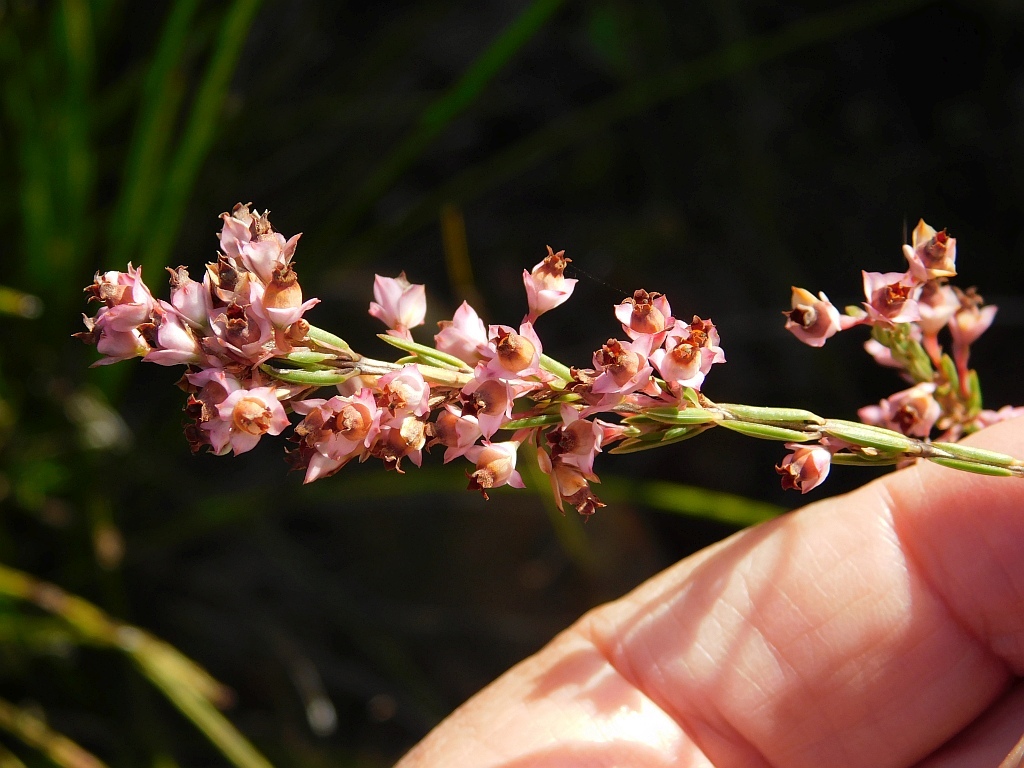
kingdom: Plantae
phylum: Tracheophyta
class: Magnoliopsida
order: Ericales
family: Ericaceae
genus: Erica
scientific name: Erica corifolia
